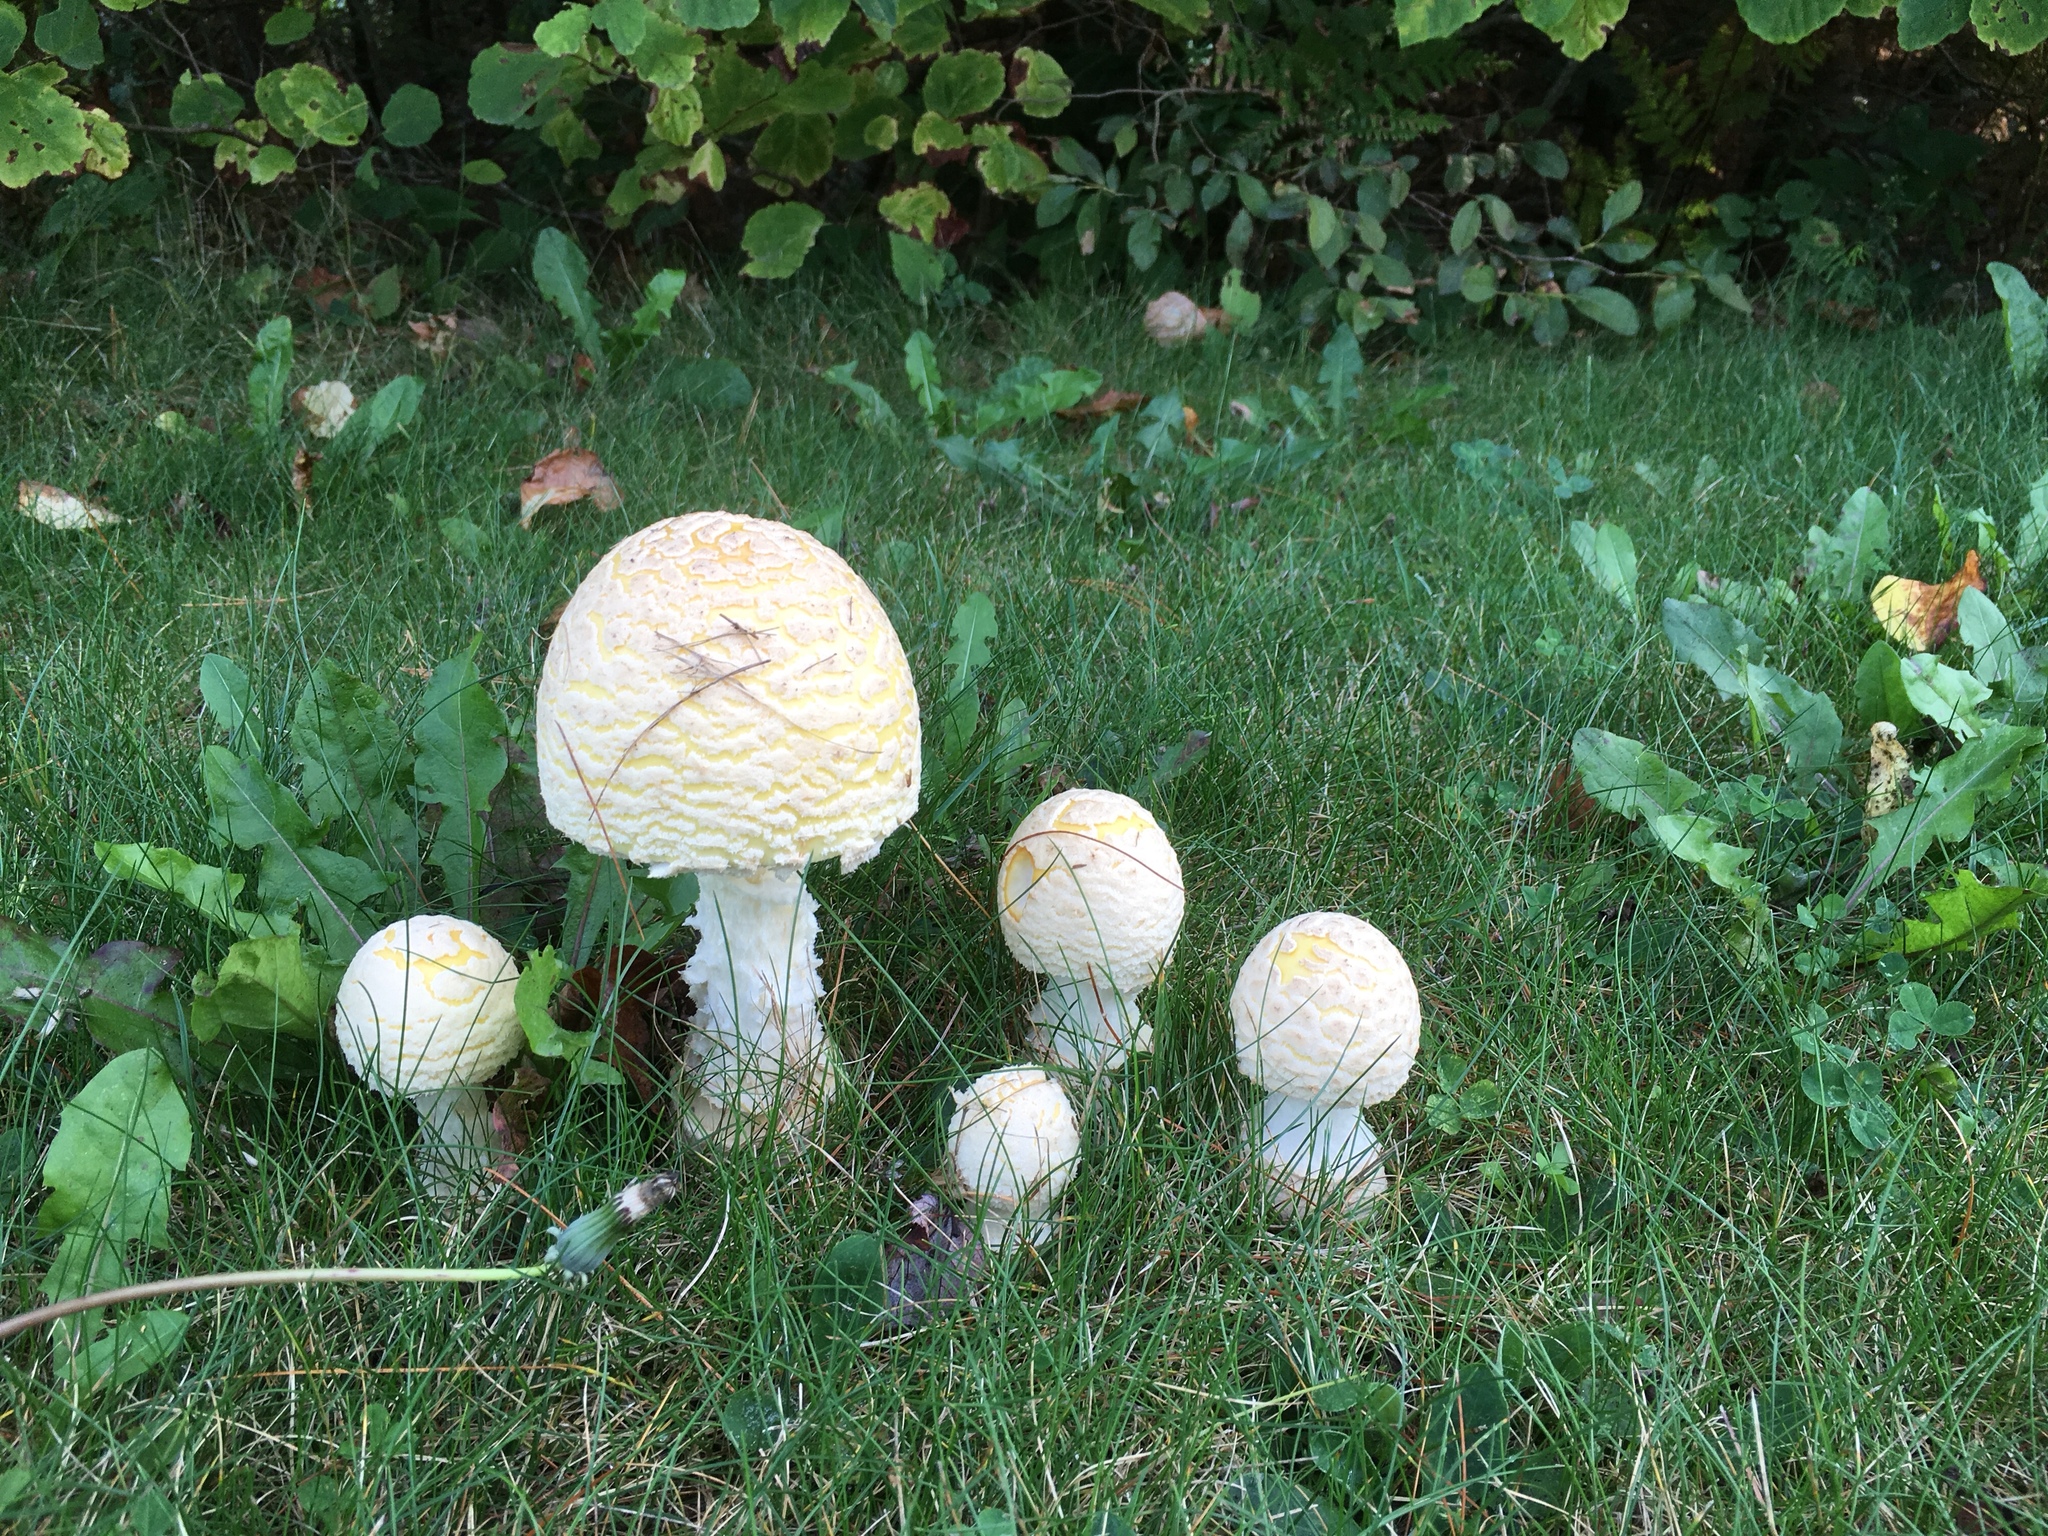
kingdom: Fungi
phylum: Basidiomycota
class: Agaricomycetes
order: Agaricales
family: Amanitaceae
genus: Amanita
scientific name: Amanita muscaria
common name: Fly agaric
